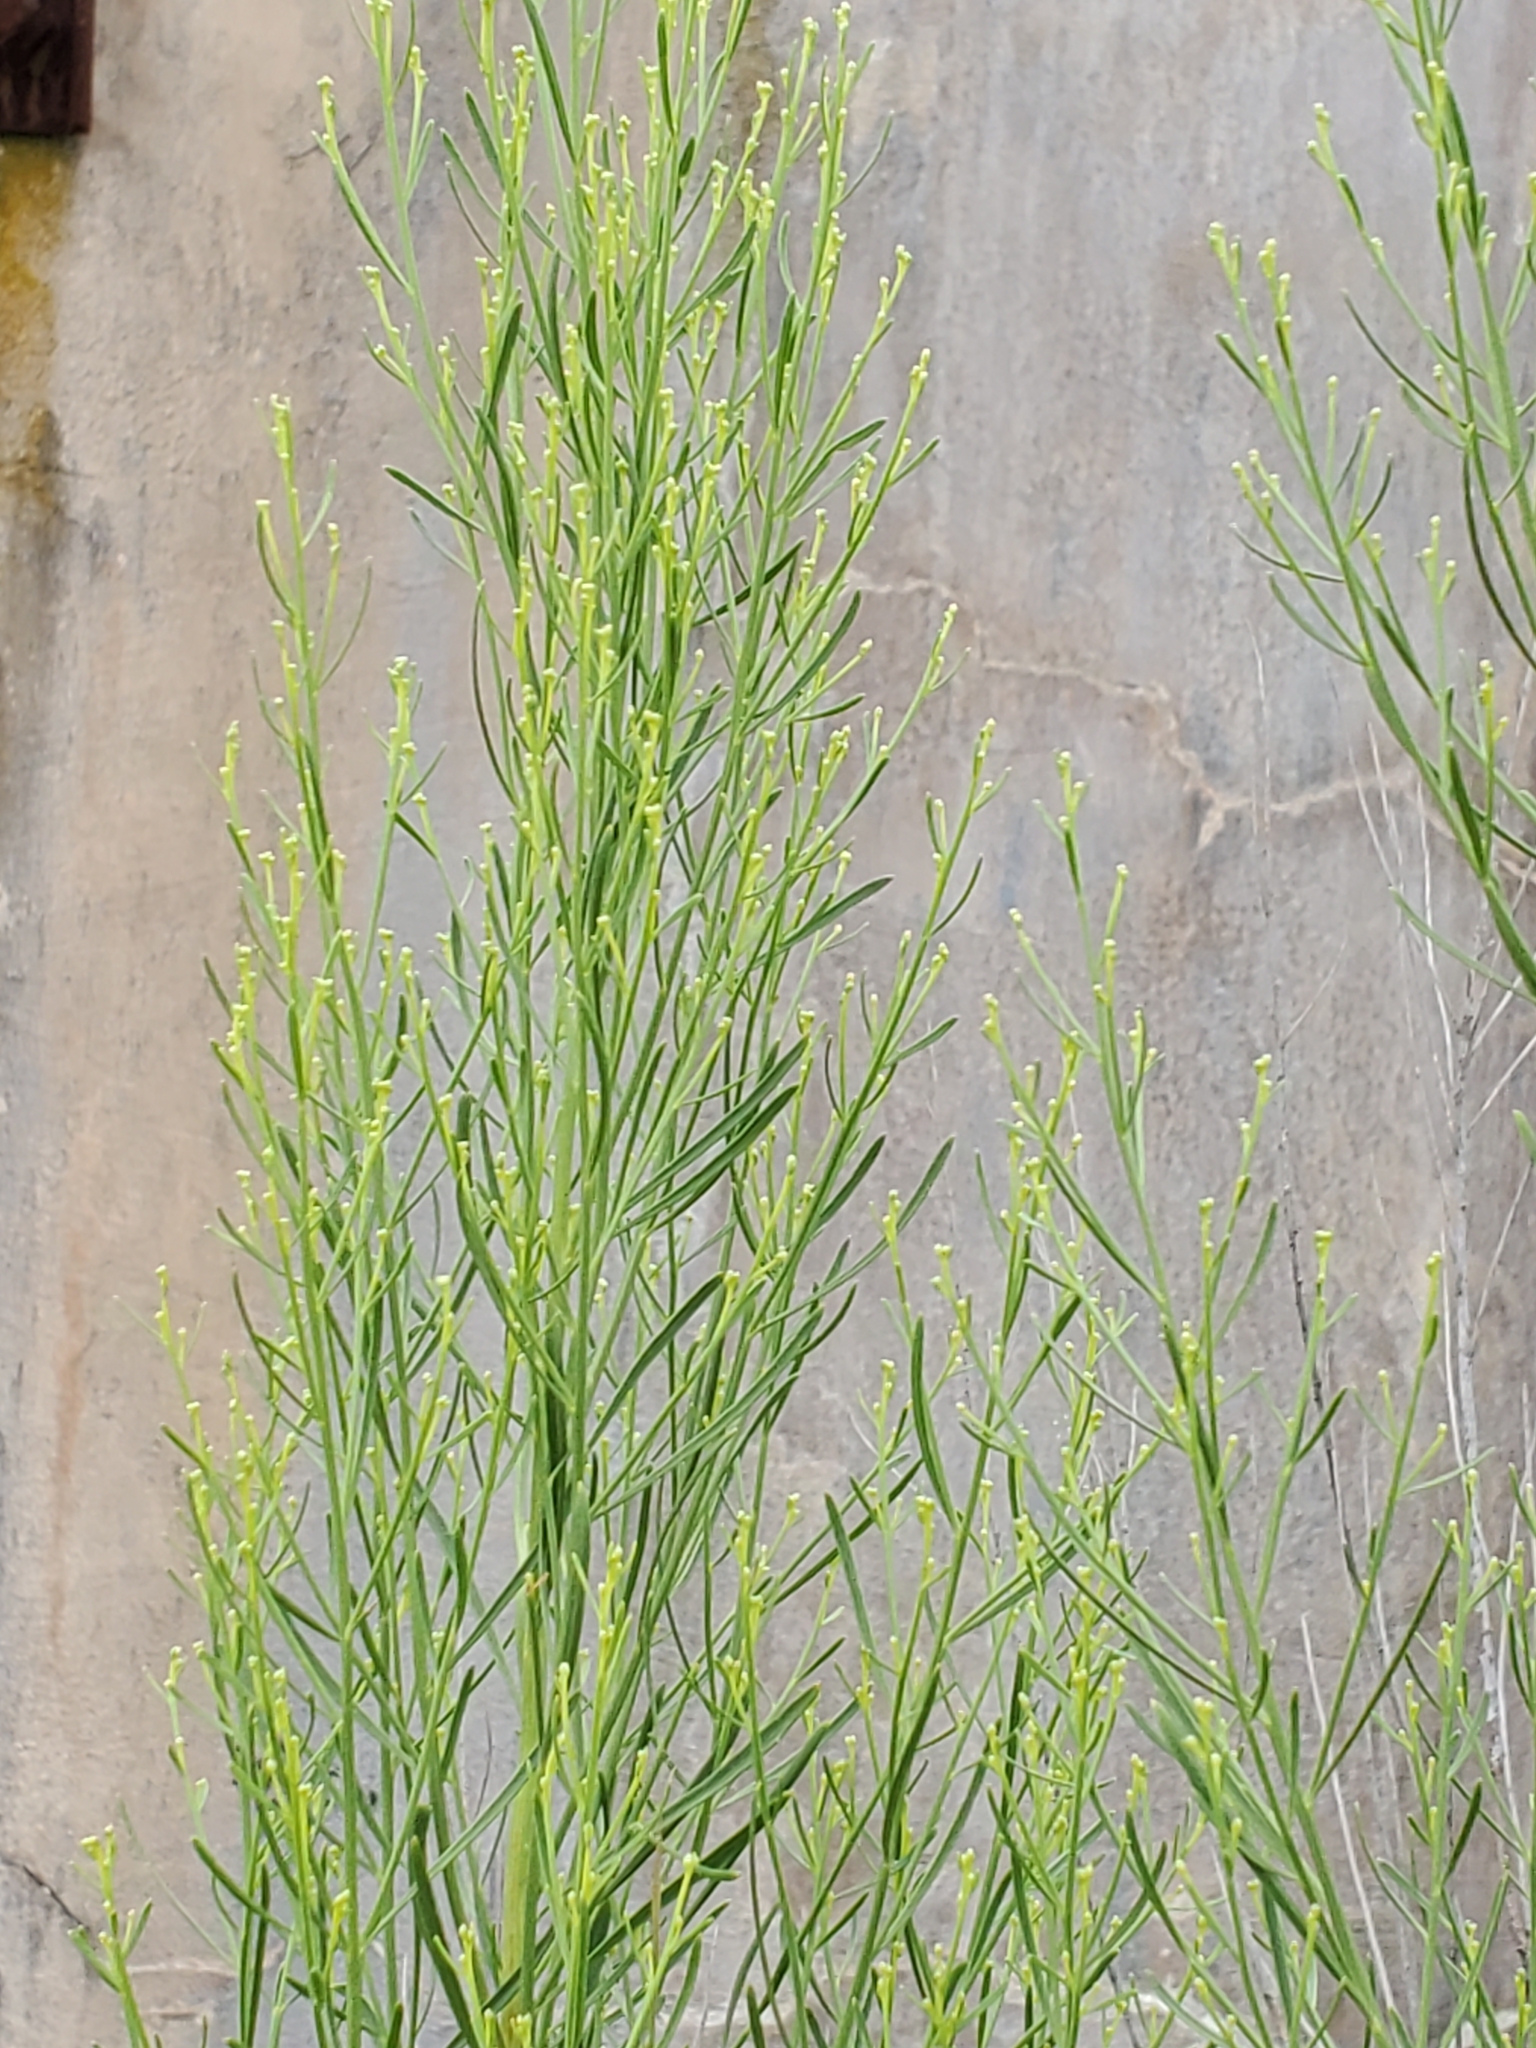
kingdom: Plantae
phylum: Tracheophyta
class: Magnoliopsida
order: Asterales
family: Asteraceae
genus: Baccharis
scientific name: Baccharis neglecta
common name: Roosevelt-weed
